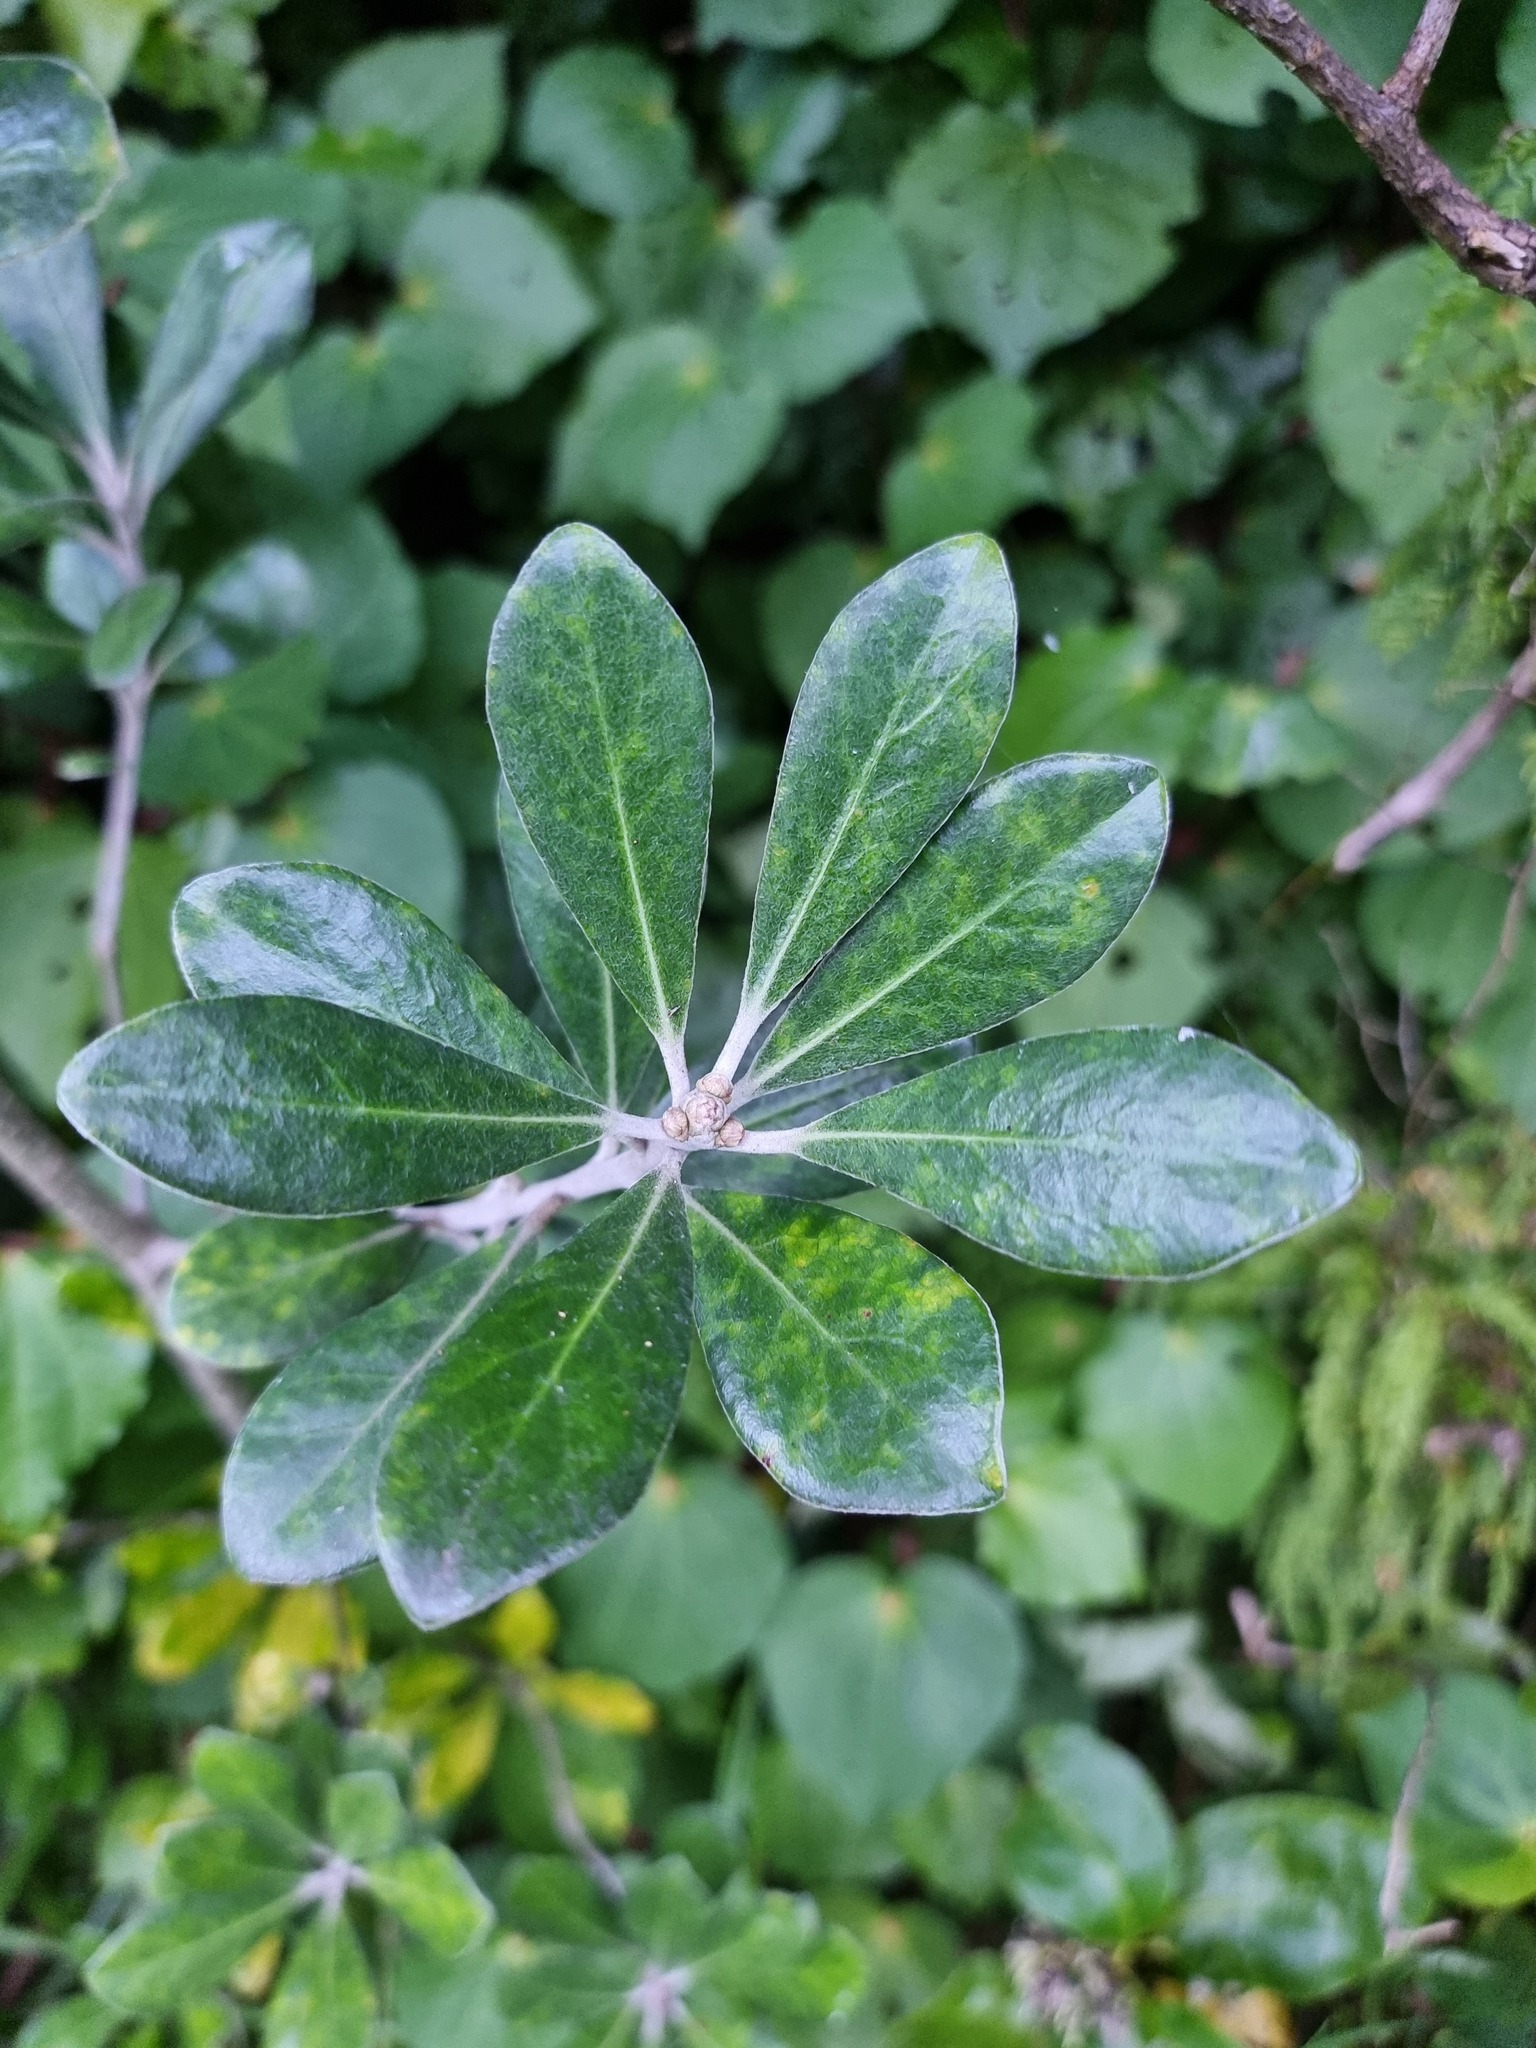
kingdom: Plantae
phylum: Tracheophyta
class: Magnoliopsida
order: Apiales
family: Pittosporaceae
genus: Pittosporum
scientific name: Pittosporum crassifolium
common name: Karo
